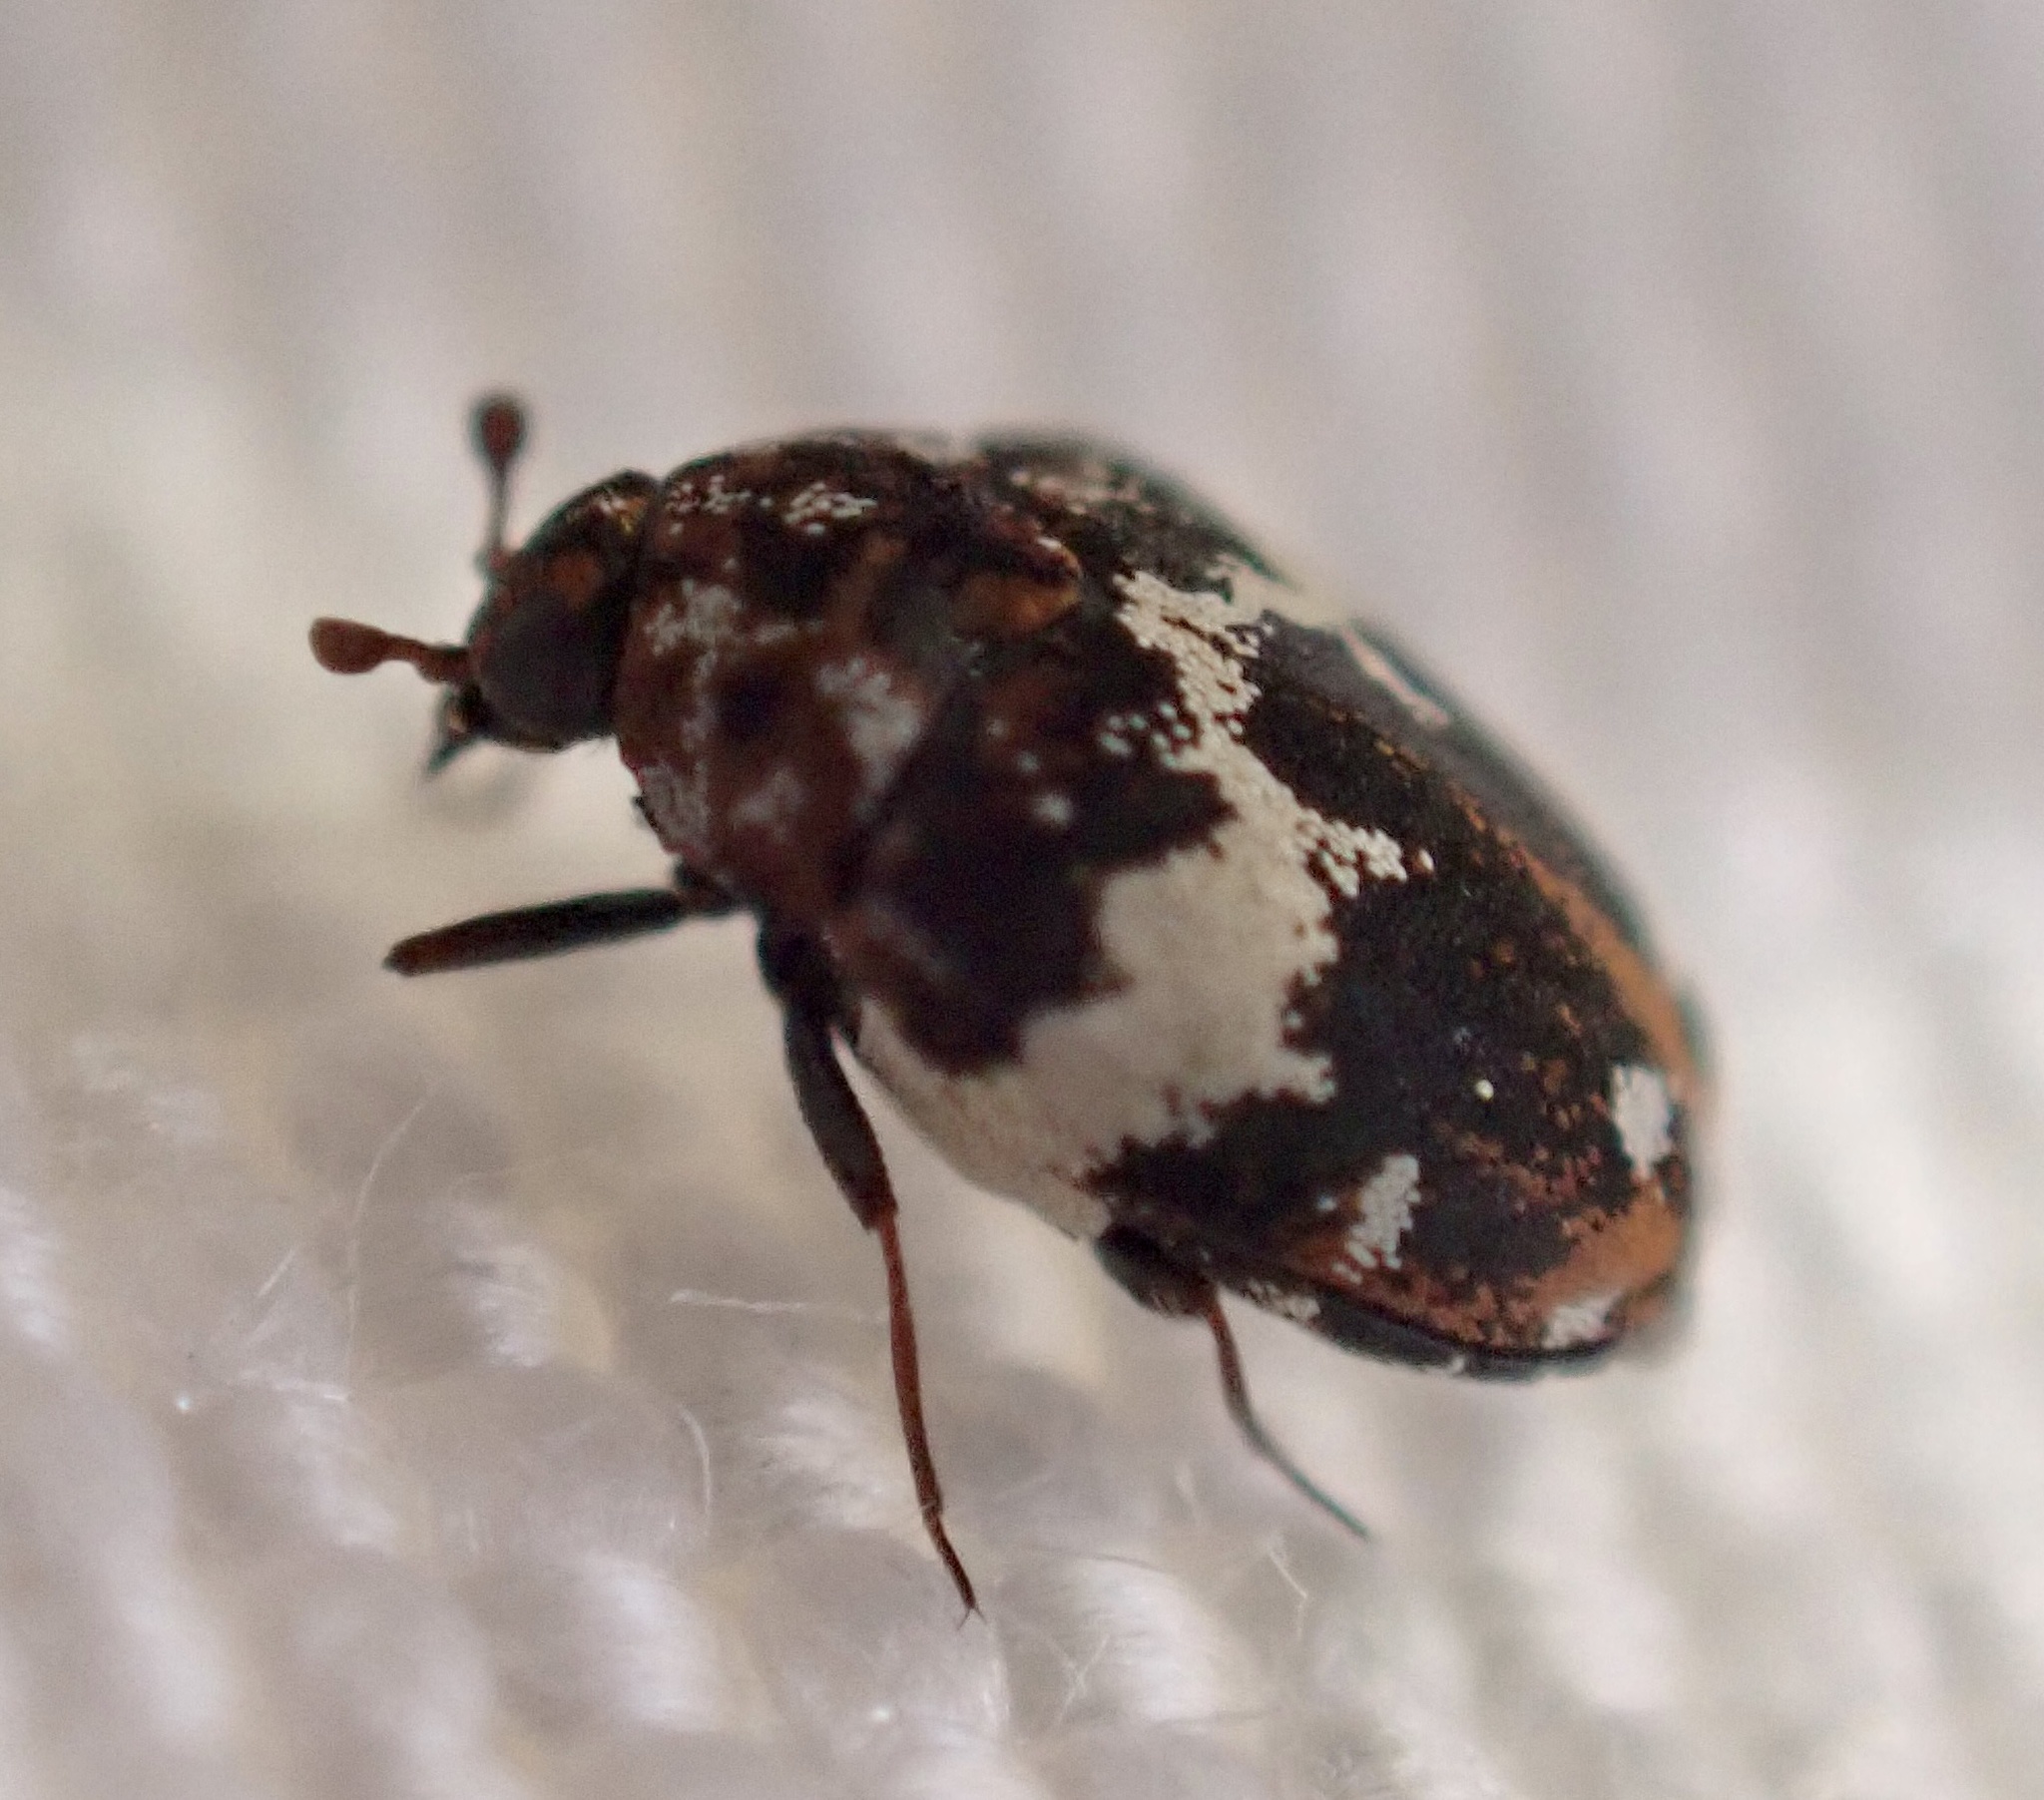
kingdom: Animalia
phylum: Arthropoda
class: Insecta
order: Coleoptera
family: Dermestidae
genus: Anthrenus
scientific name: Anthrenus pimpinellae
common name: Dermestid beetle
